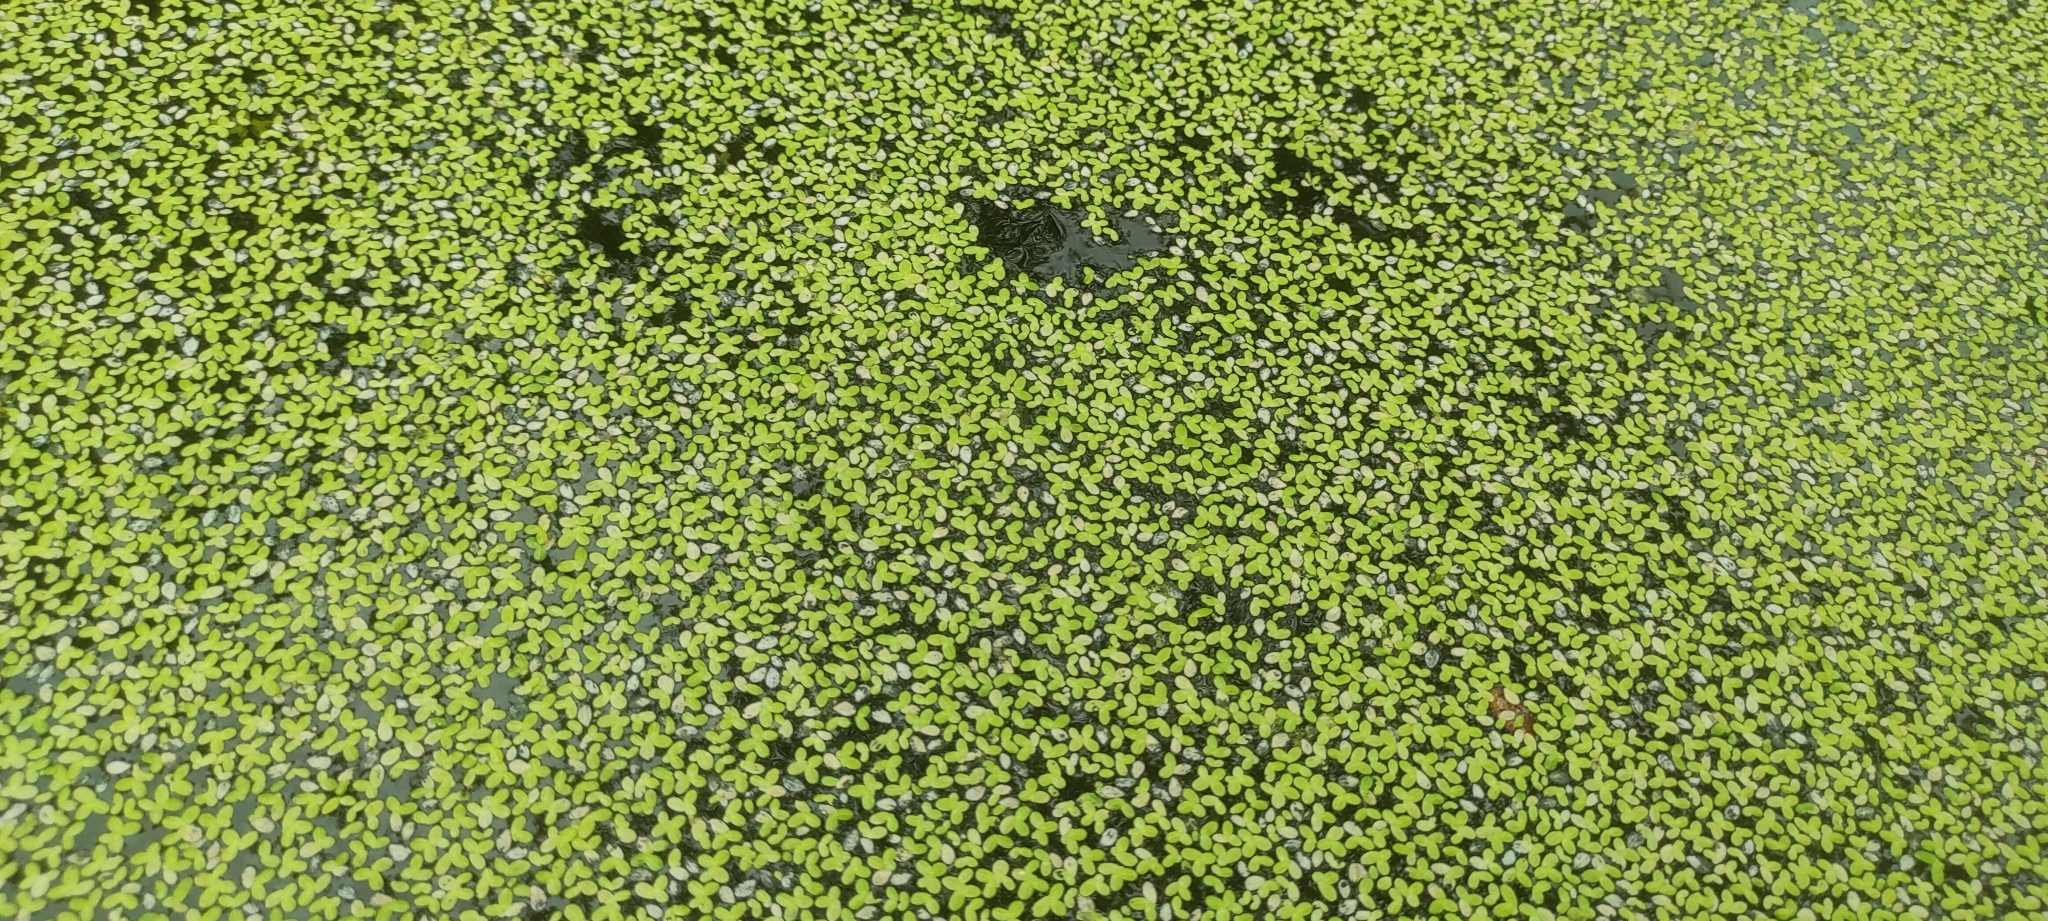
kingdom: Plantae
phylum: Tracheophyta
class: Liliopsida
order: Alismatales
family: Araceae
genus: Lemna
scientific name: Lemna minor
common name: Common duckweed
